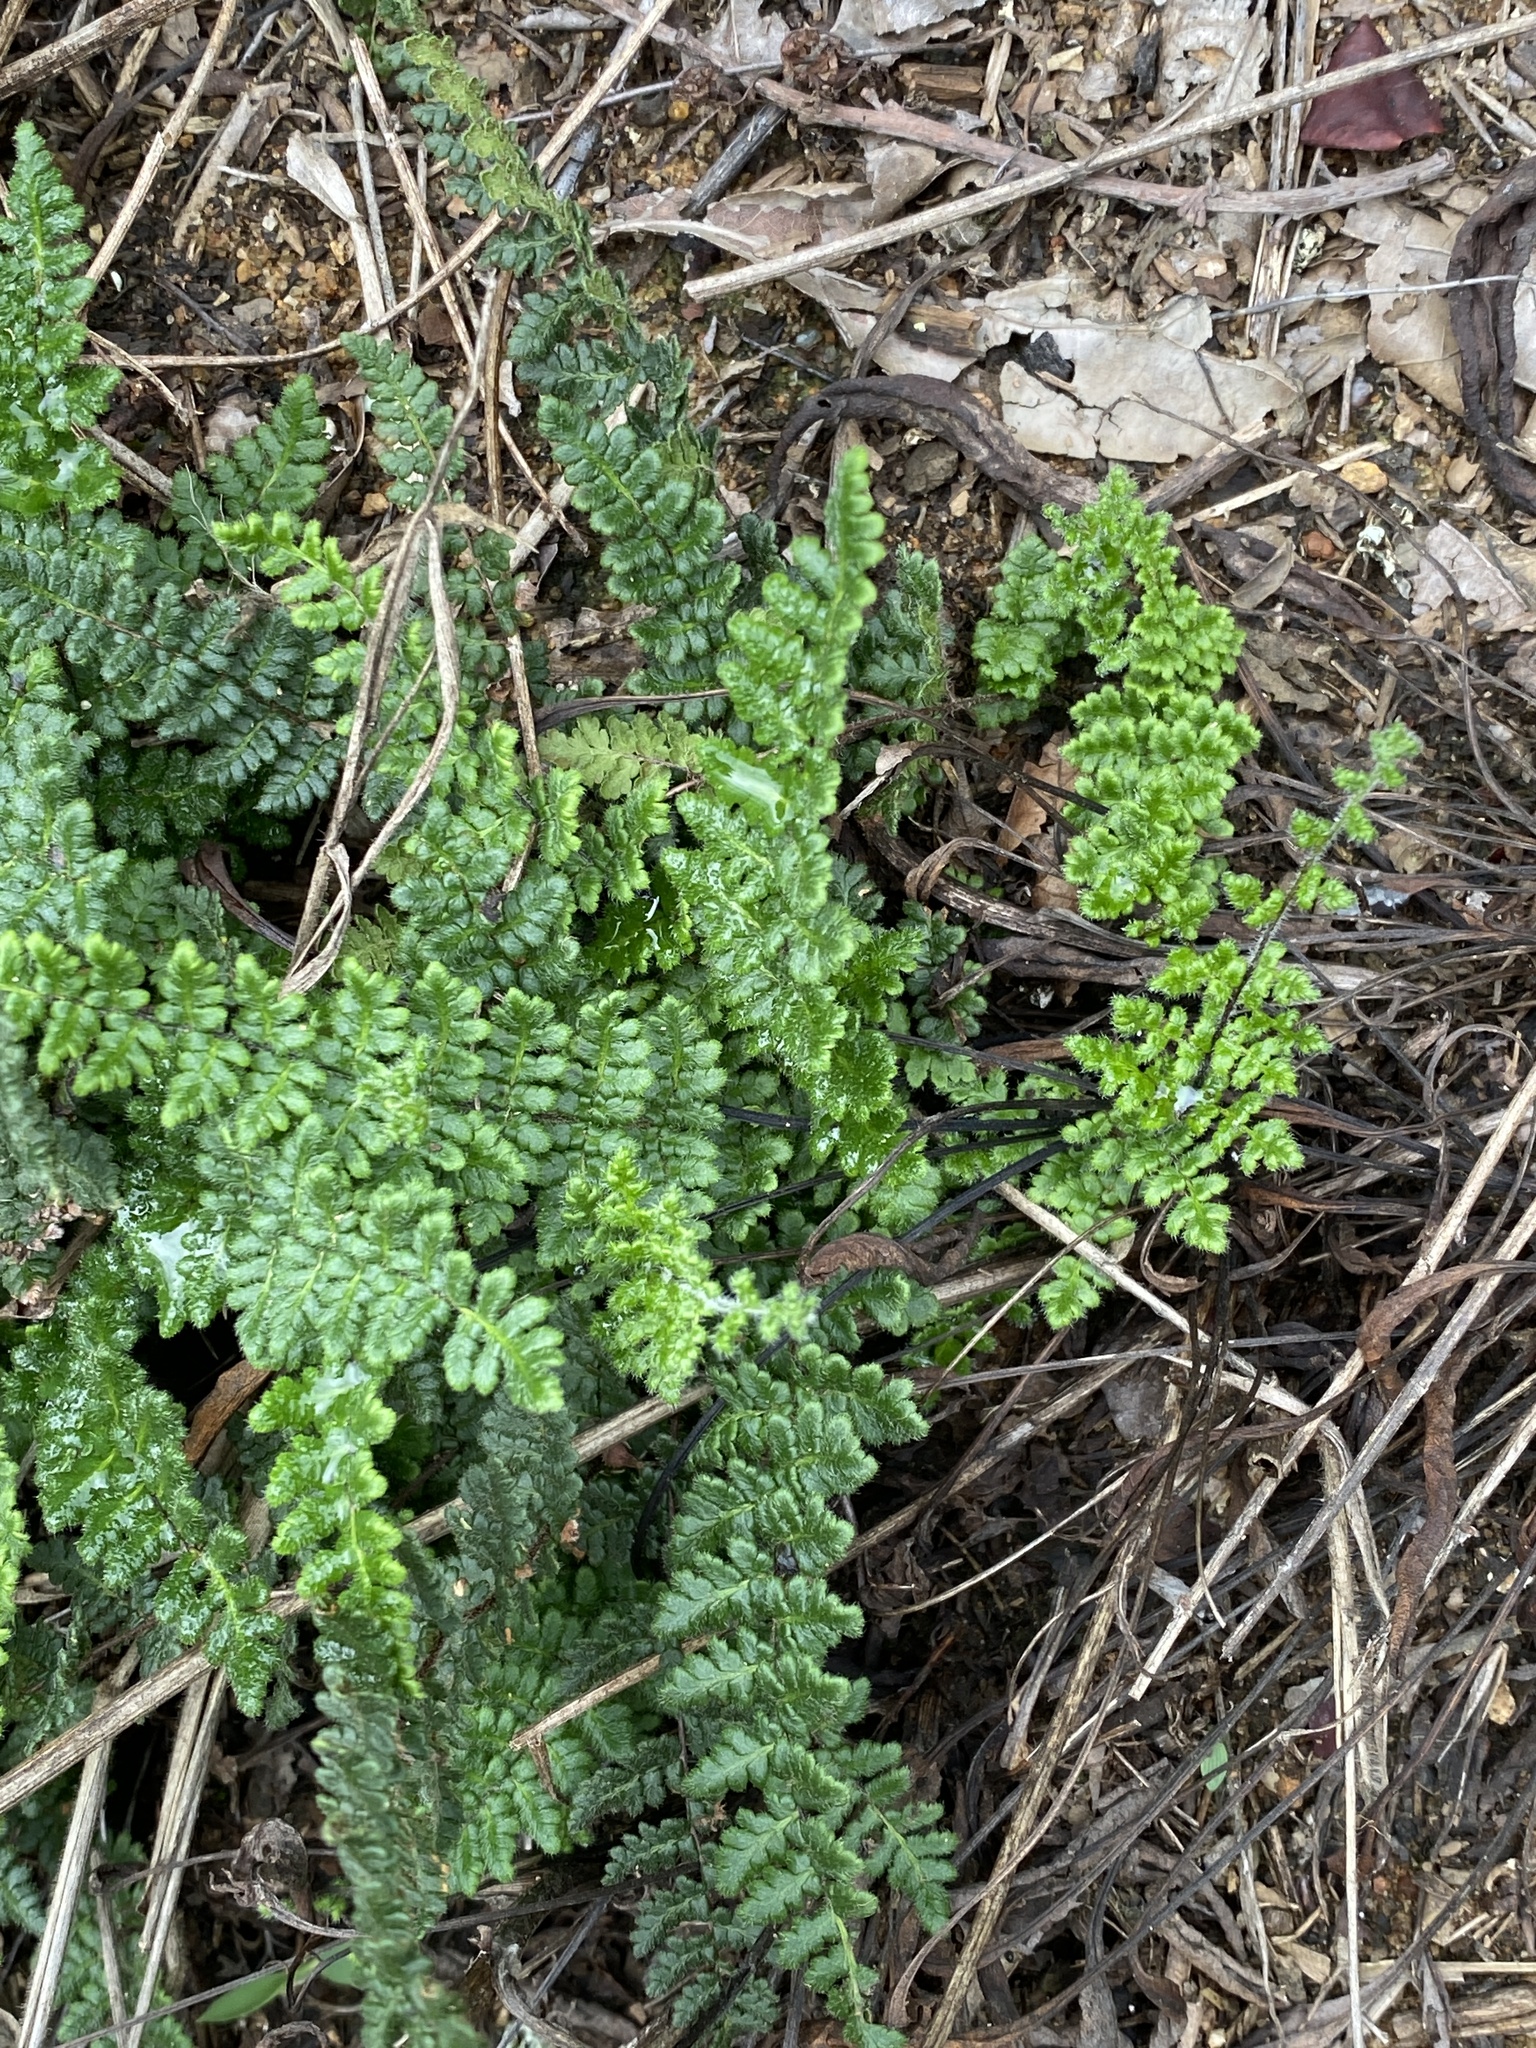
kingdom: Plantae
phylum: Tracheophyta
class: Polypodiopsida
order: Polypodiales
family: Pteridaceae
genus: Myriopteris
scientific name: Myriopteris lanosa
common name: Hairy lip fern
